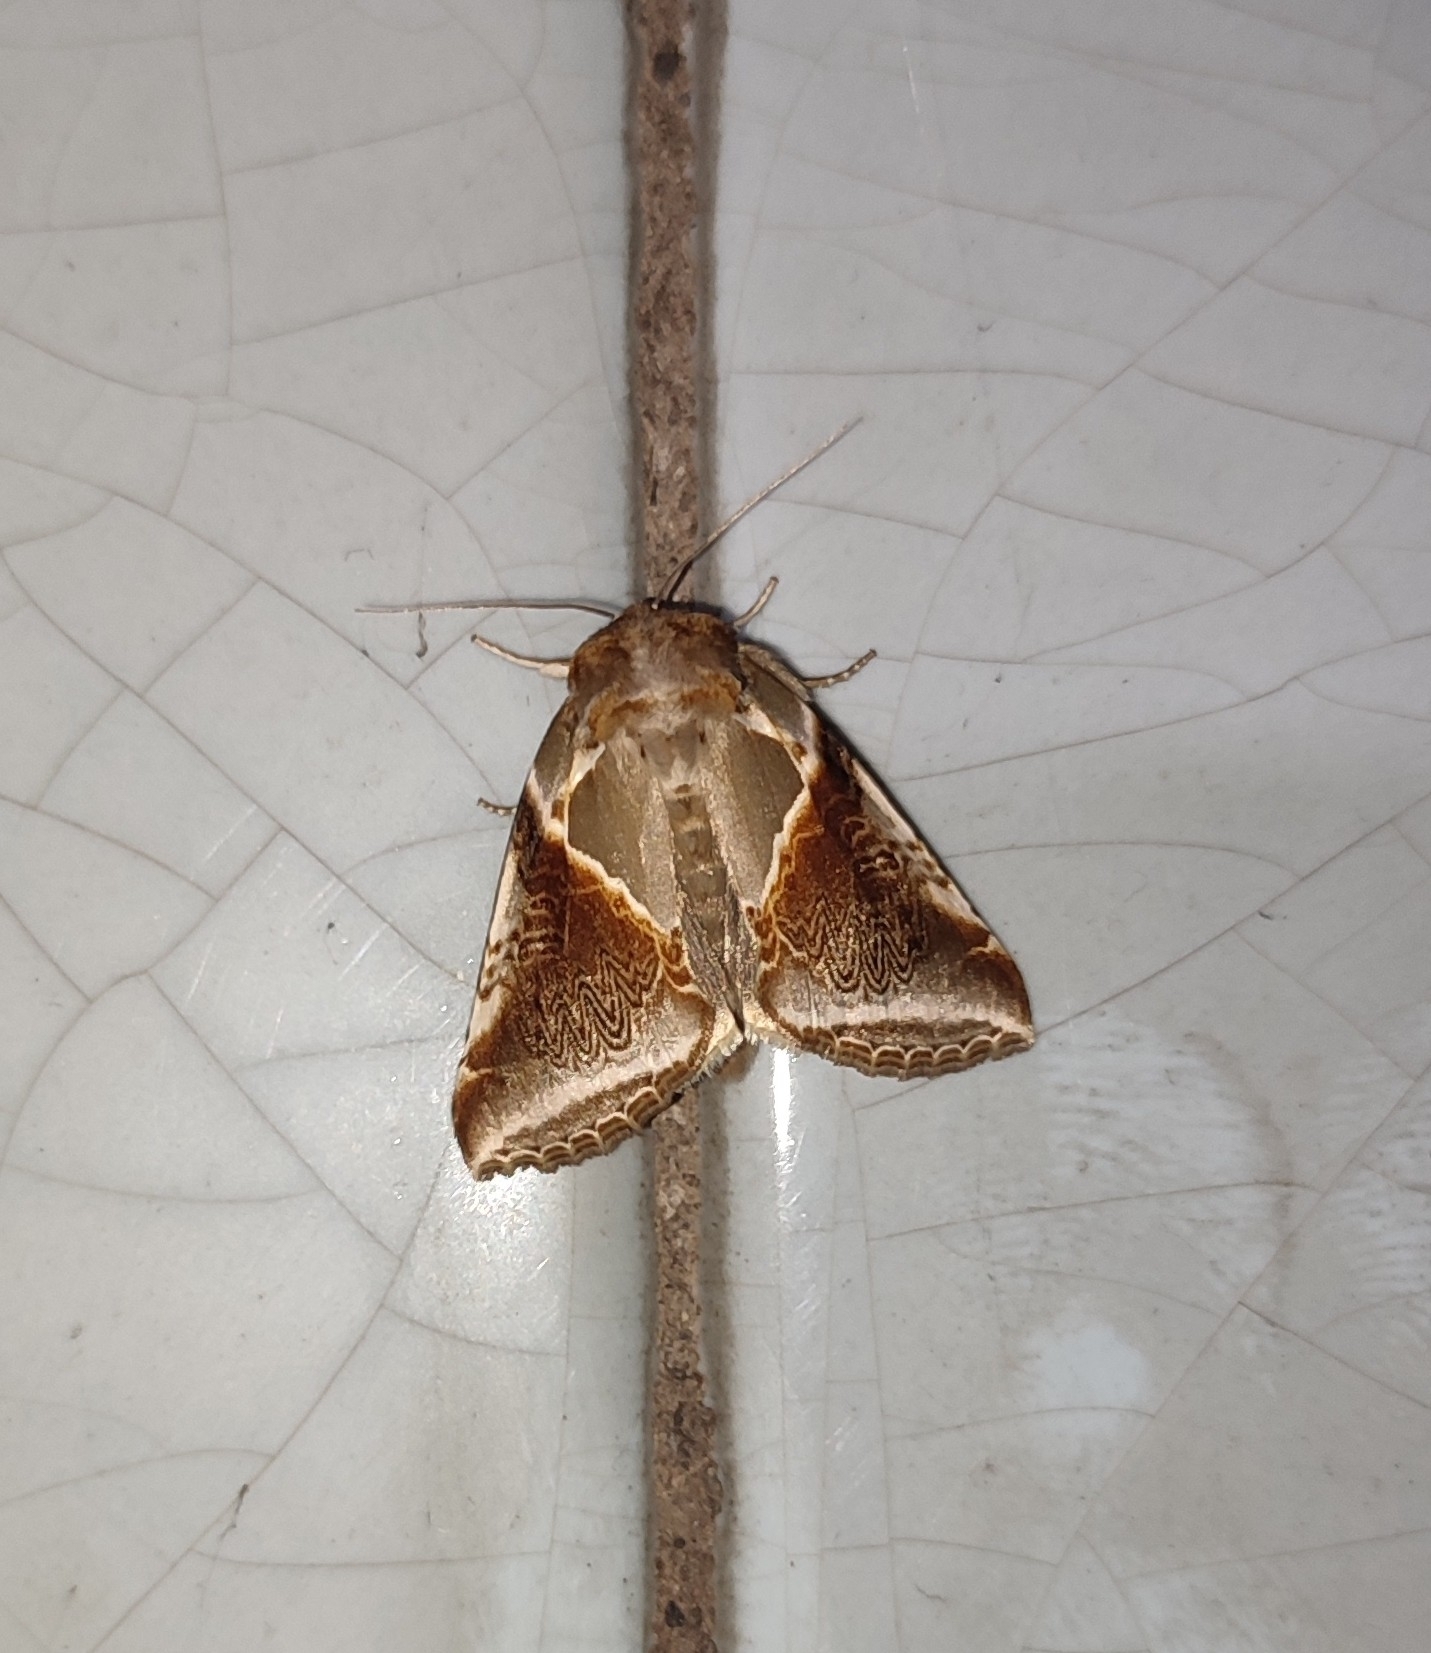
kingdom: Animalia
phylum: Arthropoda
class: Insecta
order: Lepidoptera
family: Drepanidae
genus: Habrosyne
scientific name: Habrosyne pyritoides
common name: Buff arches
